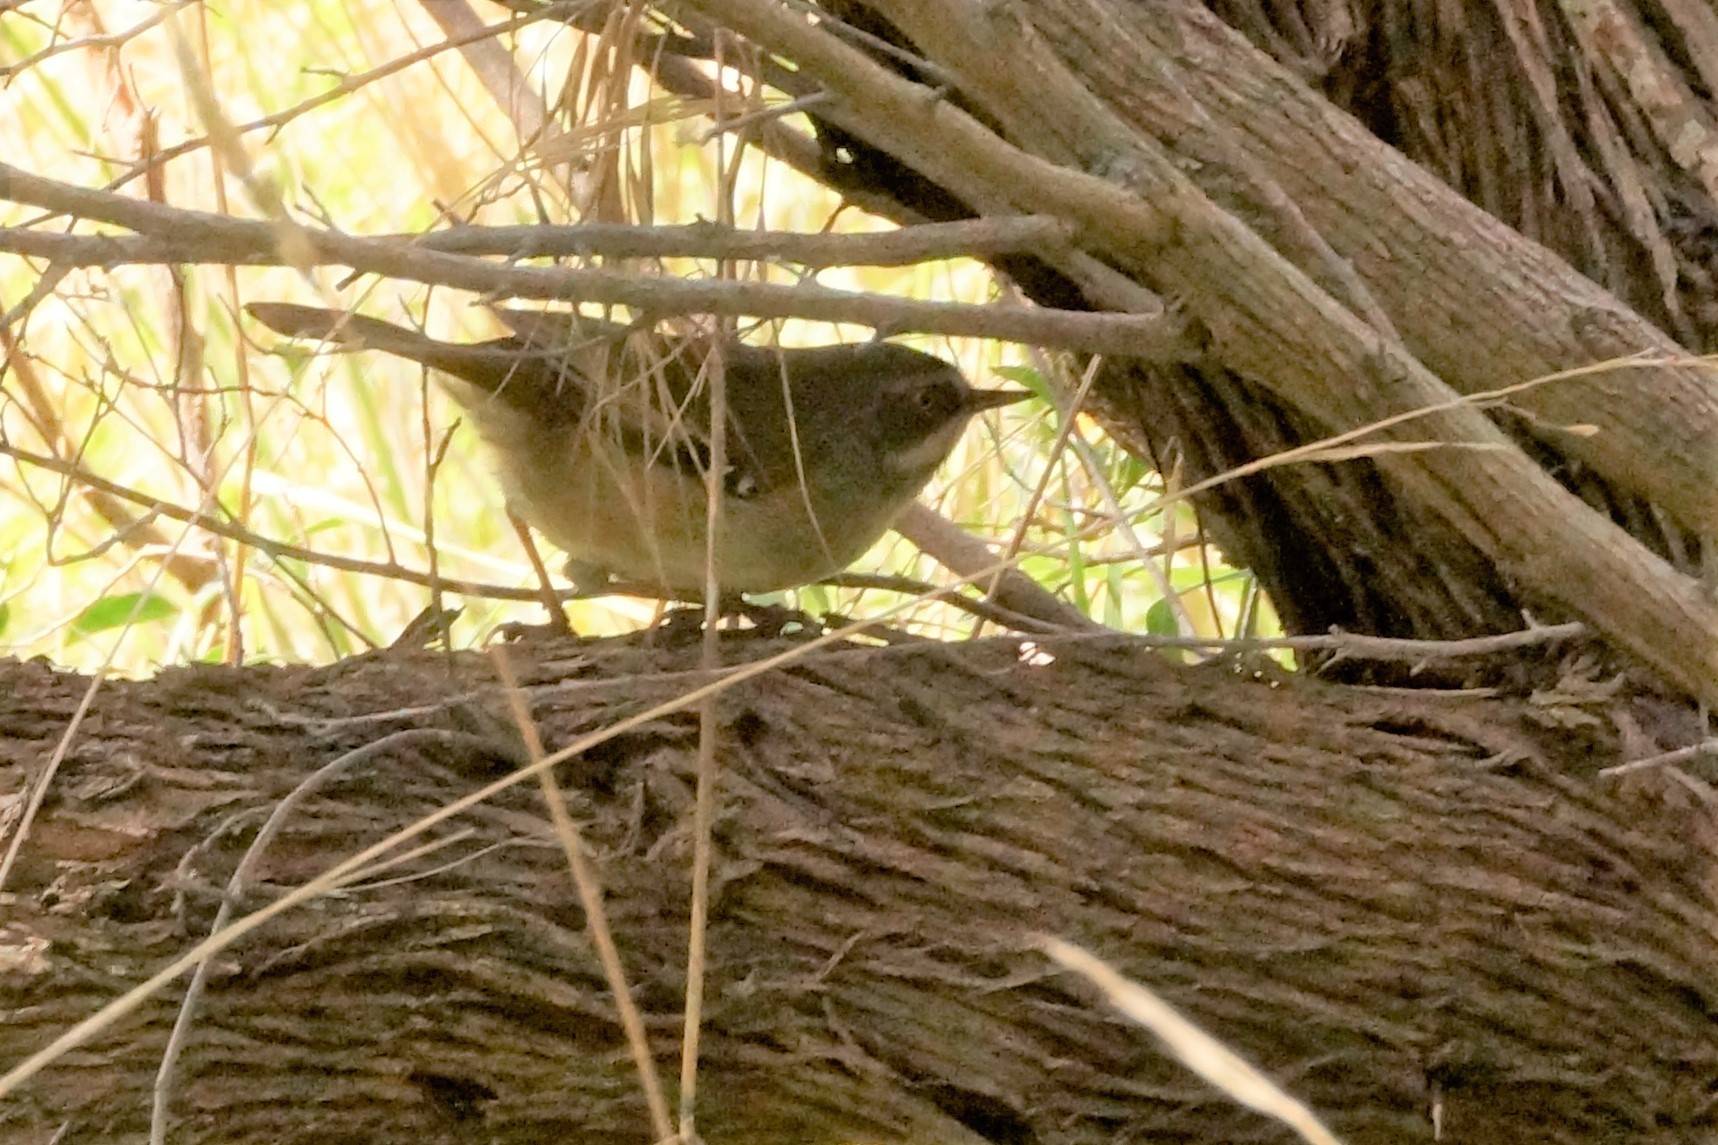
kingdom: Animalia
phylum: Chordata
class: Aves
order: Passeriformes
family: Acanthizidae
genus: Sericornis
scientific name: Sericornis frontalis
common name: White-browed scrubwren
